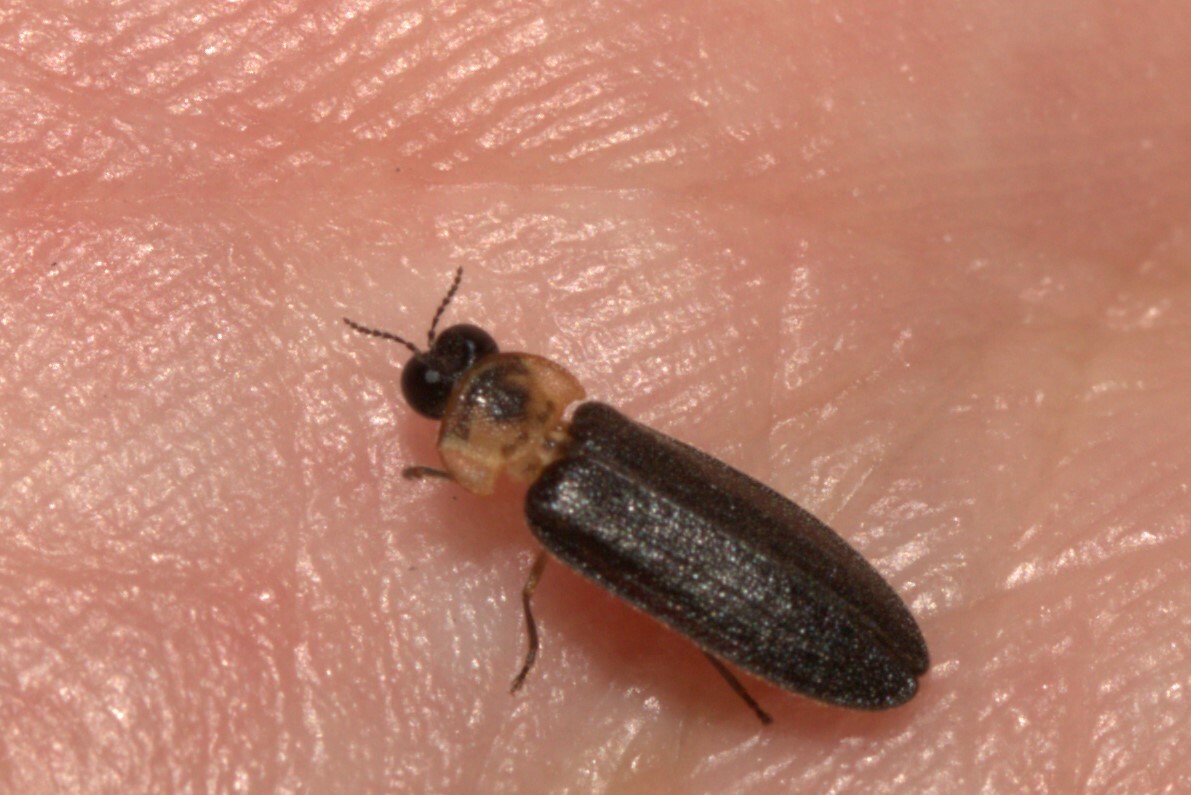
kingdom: Animalia
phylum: Arthropoda
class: Insecta
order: Coleoptera
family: Lampyridae
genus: Atyphella
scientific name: Atyphella scintillans
